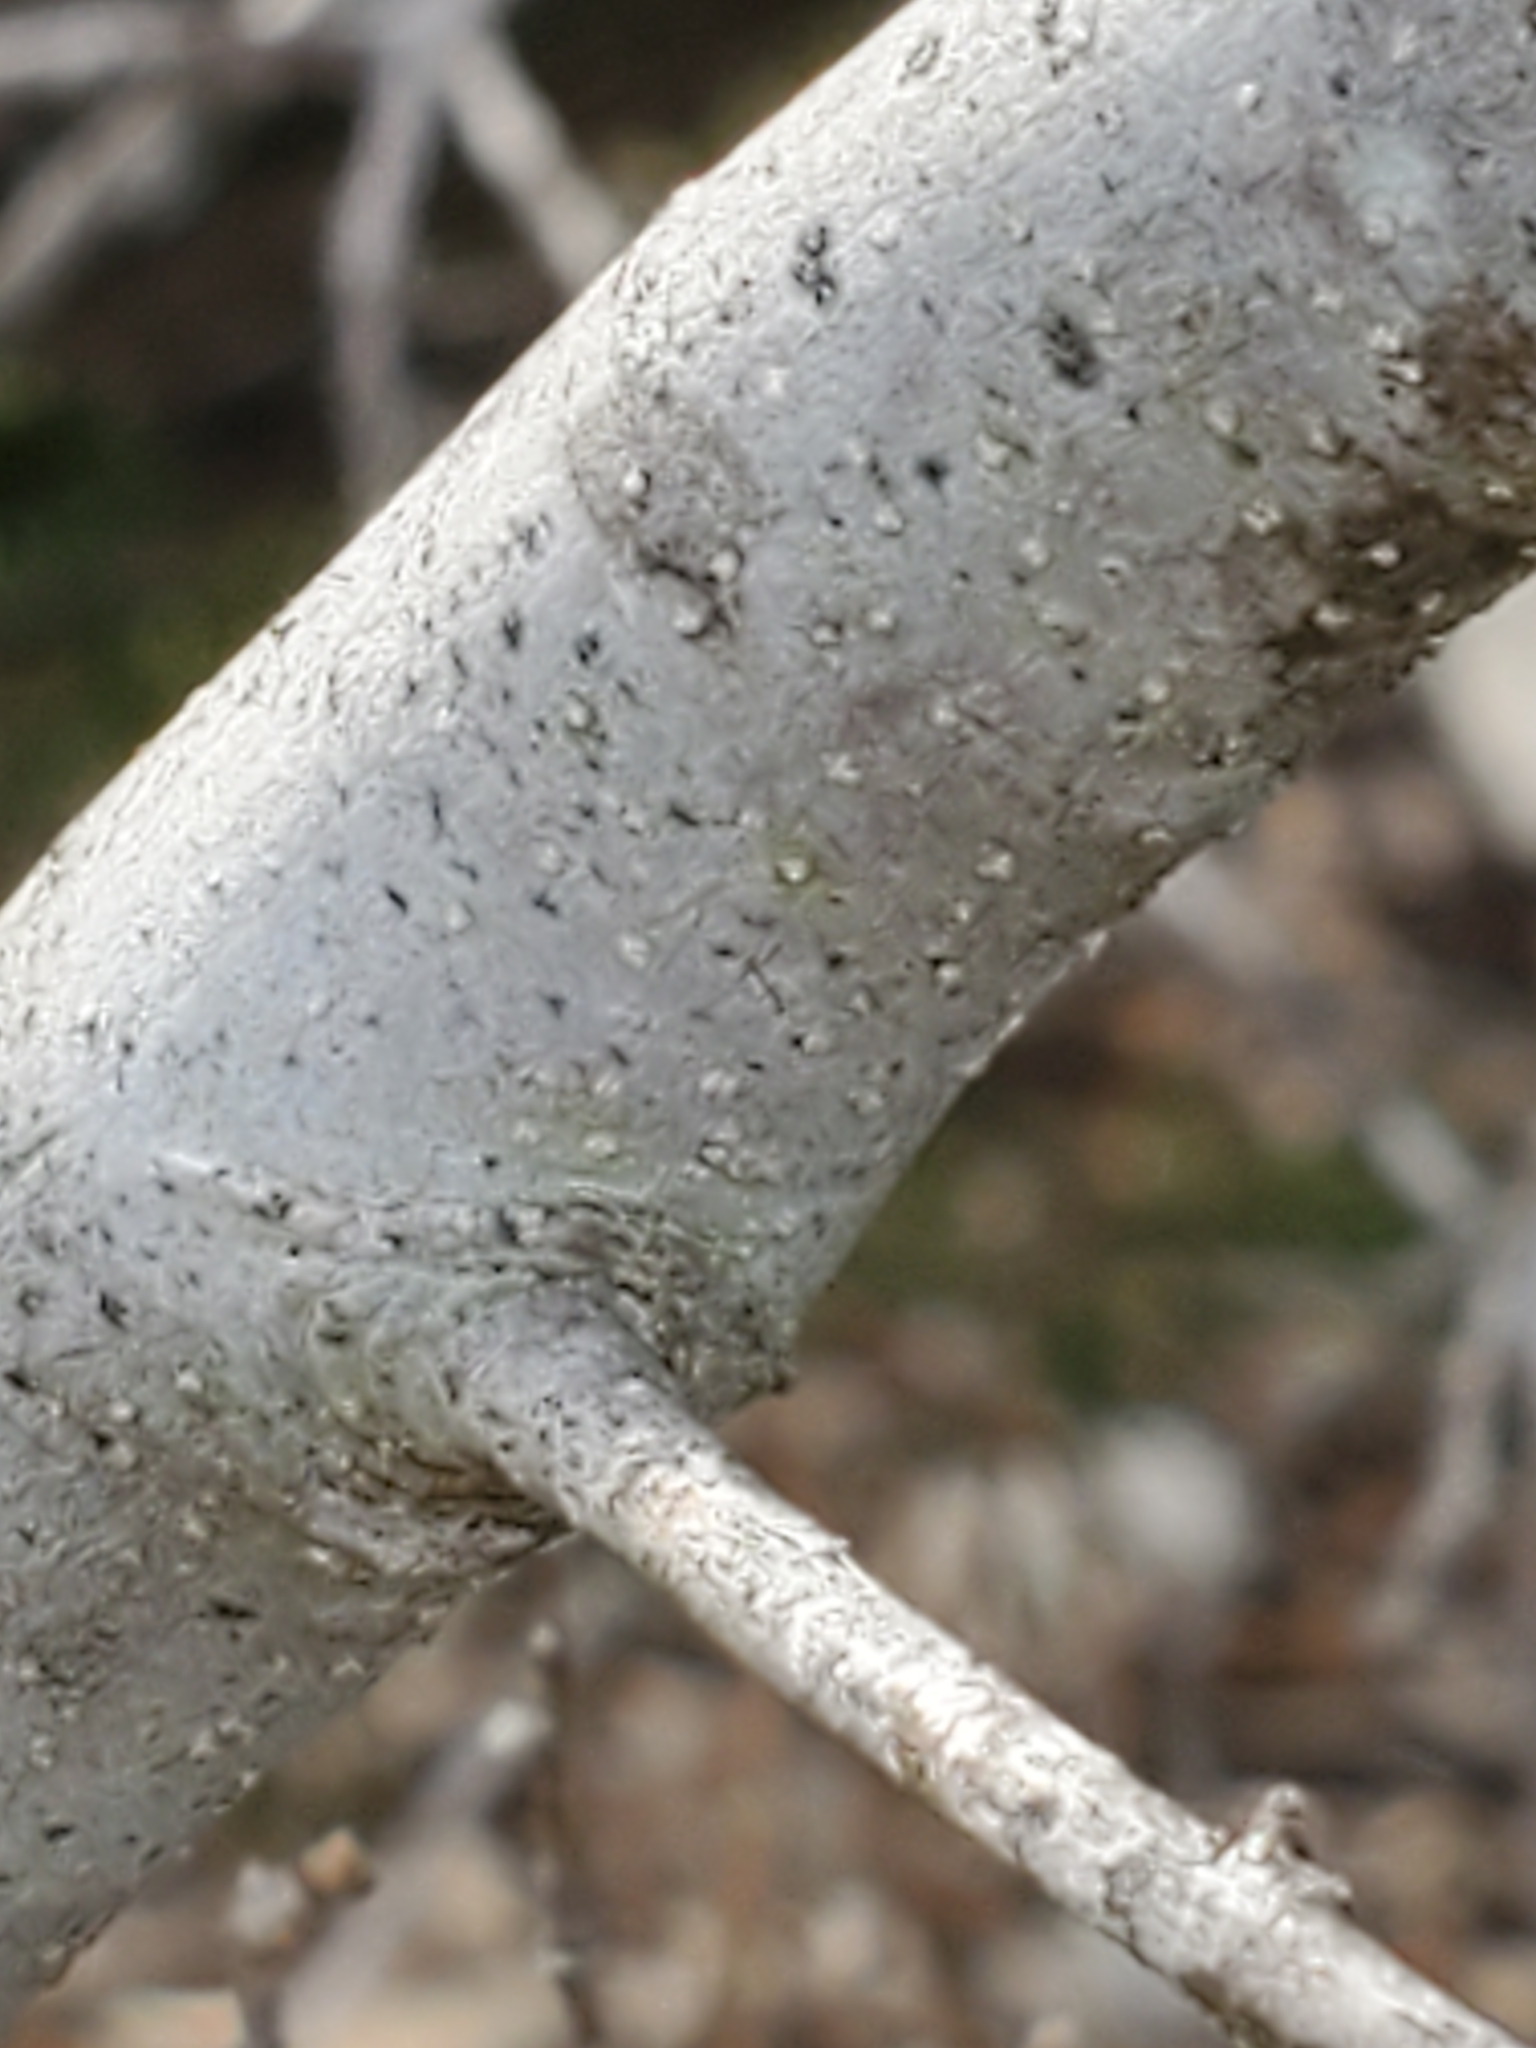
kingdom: Plantae
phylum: Tracheophyta
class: Magnoliopsida
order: Lamiales
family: Oleaceae
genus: Forestiera
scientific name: Forestiera reticulata
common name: Netleaf swamp-privet
